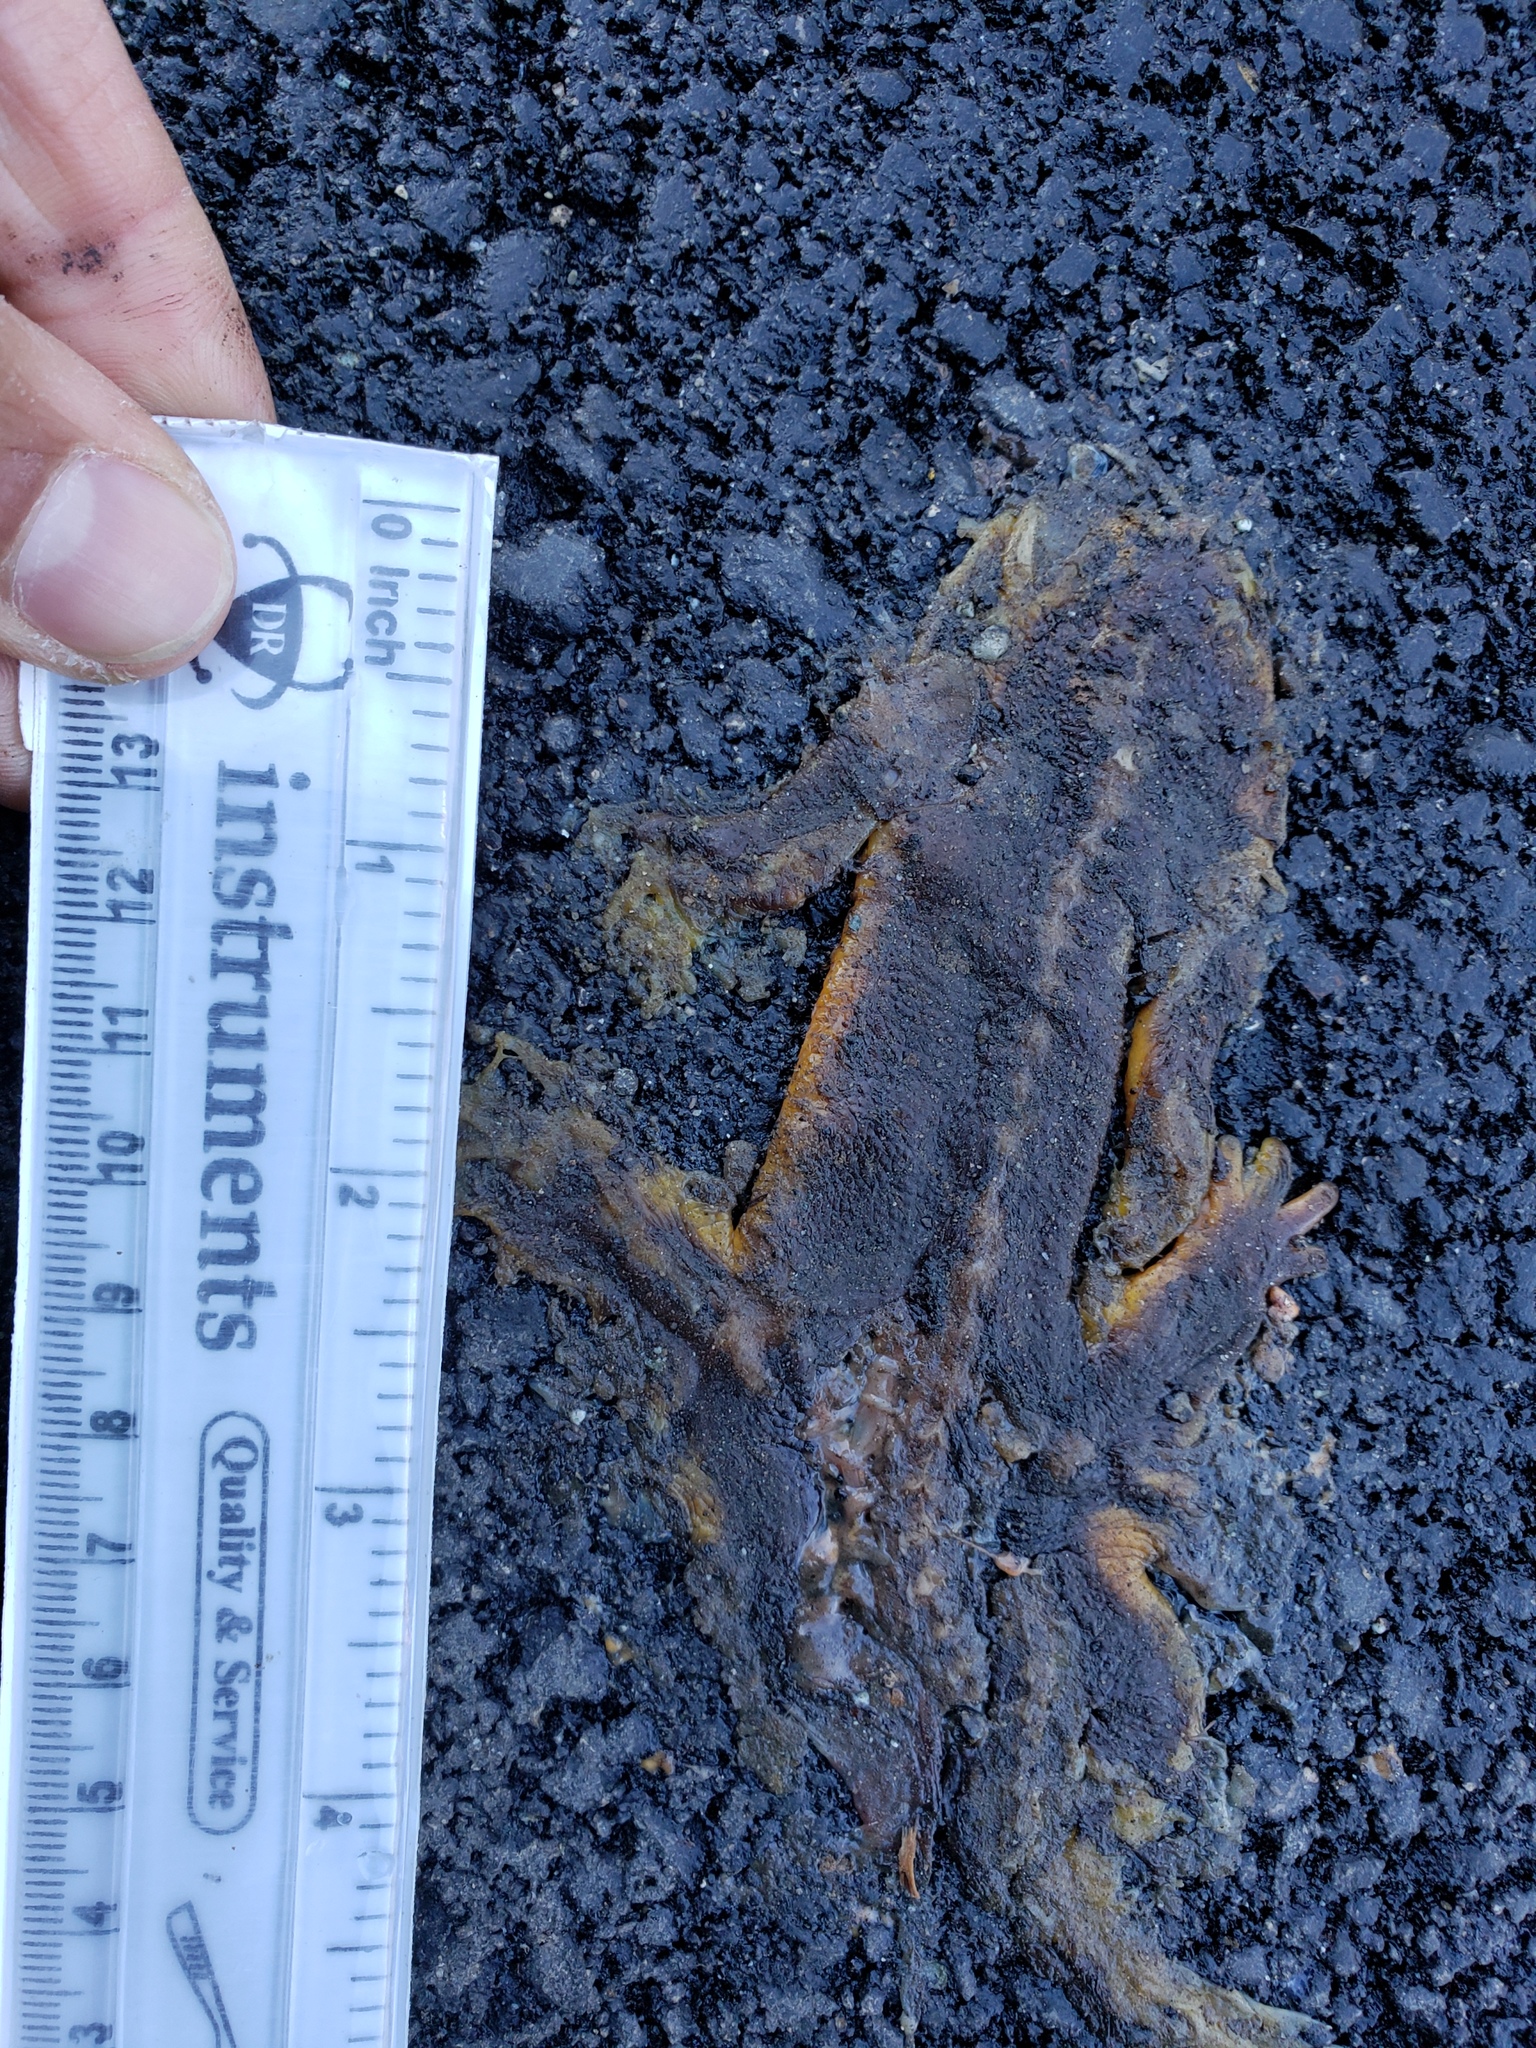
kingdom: Animalia
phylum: Chordata
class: Amphibia
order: Caudata
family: Salamandridae
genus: Taricha
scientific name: Taricha
